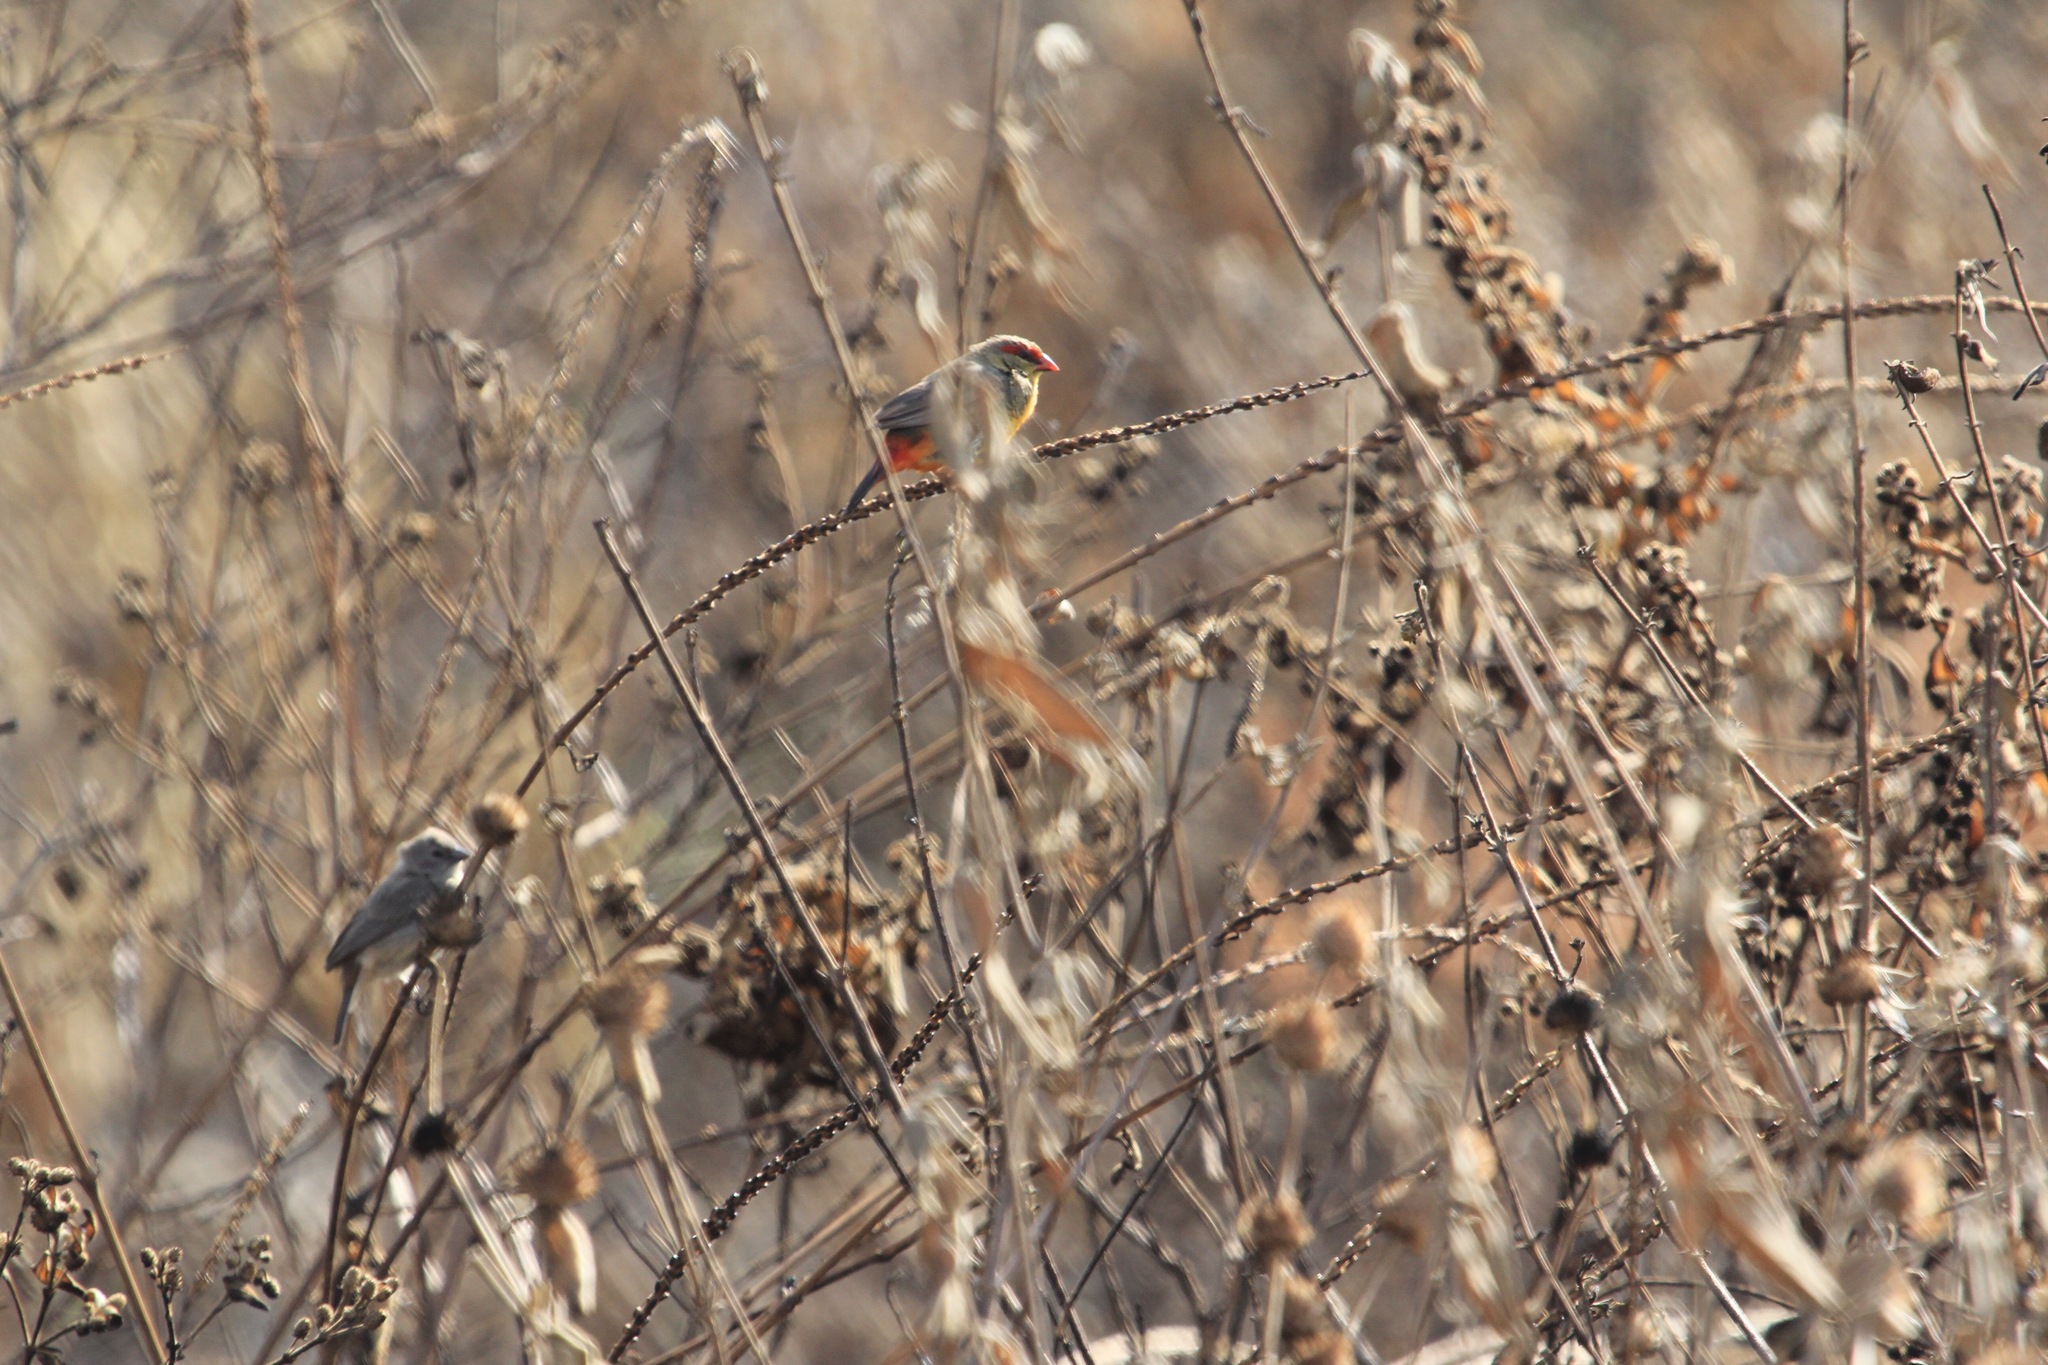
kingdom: Animalia
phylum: Chordata
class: Aves
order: Passeriformes
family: Estrildidae
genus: Amandava
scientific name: Amandava subflava
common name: Orange-breasted waxbill
